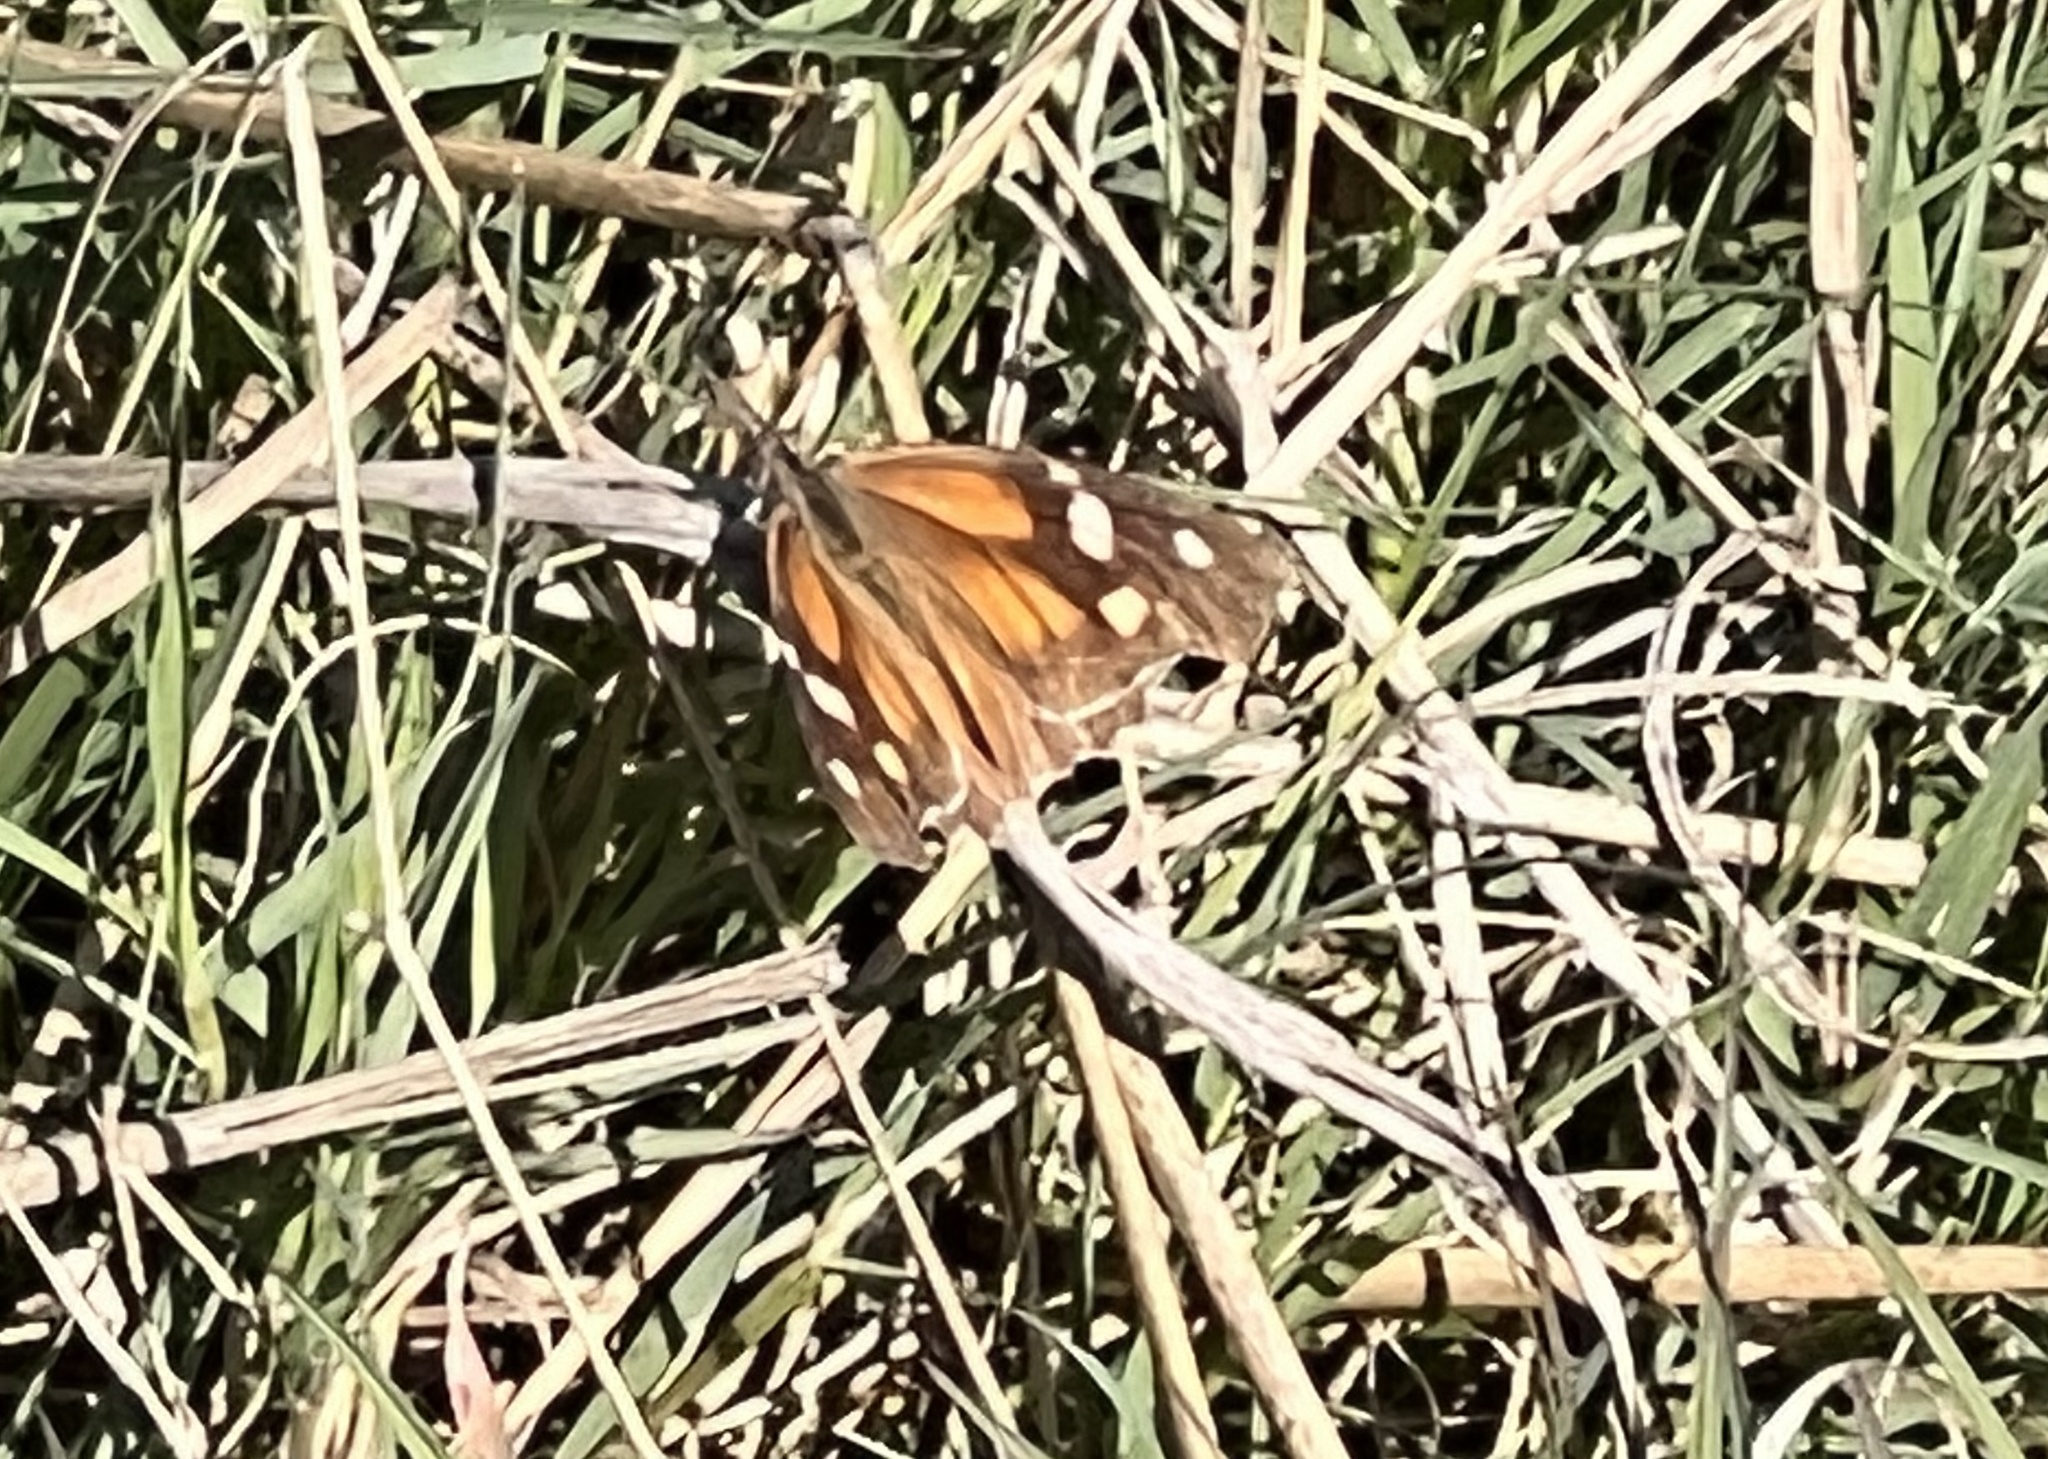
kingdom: Animalia
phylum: Arthropoda
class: Insecta
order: Lepidoptera
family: Nymphalidae
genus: Libytheana
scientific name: Libytheana carinenta
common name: American snout
